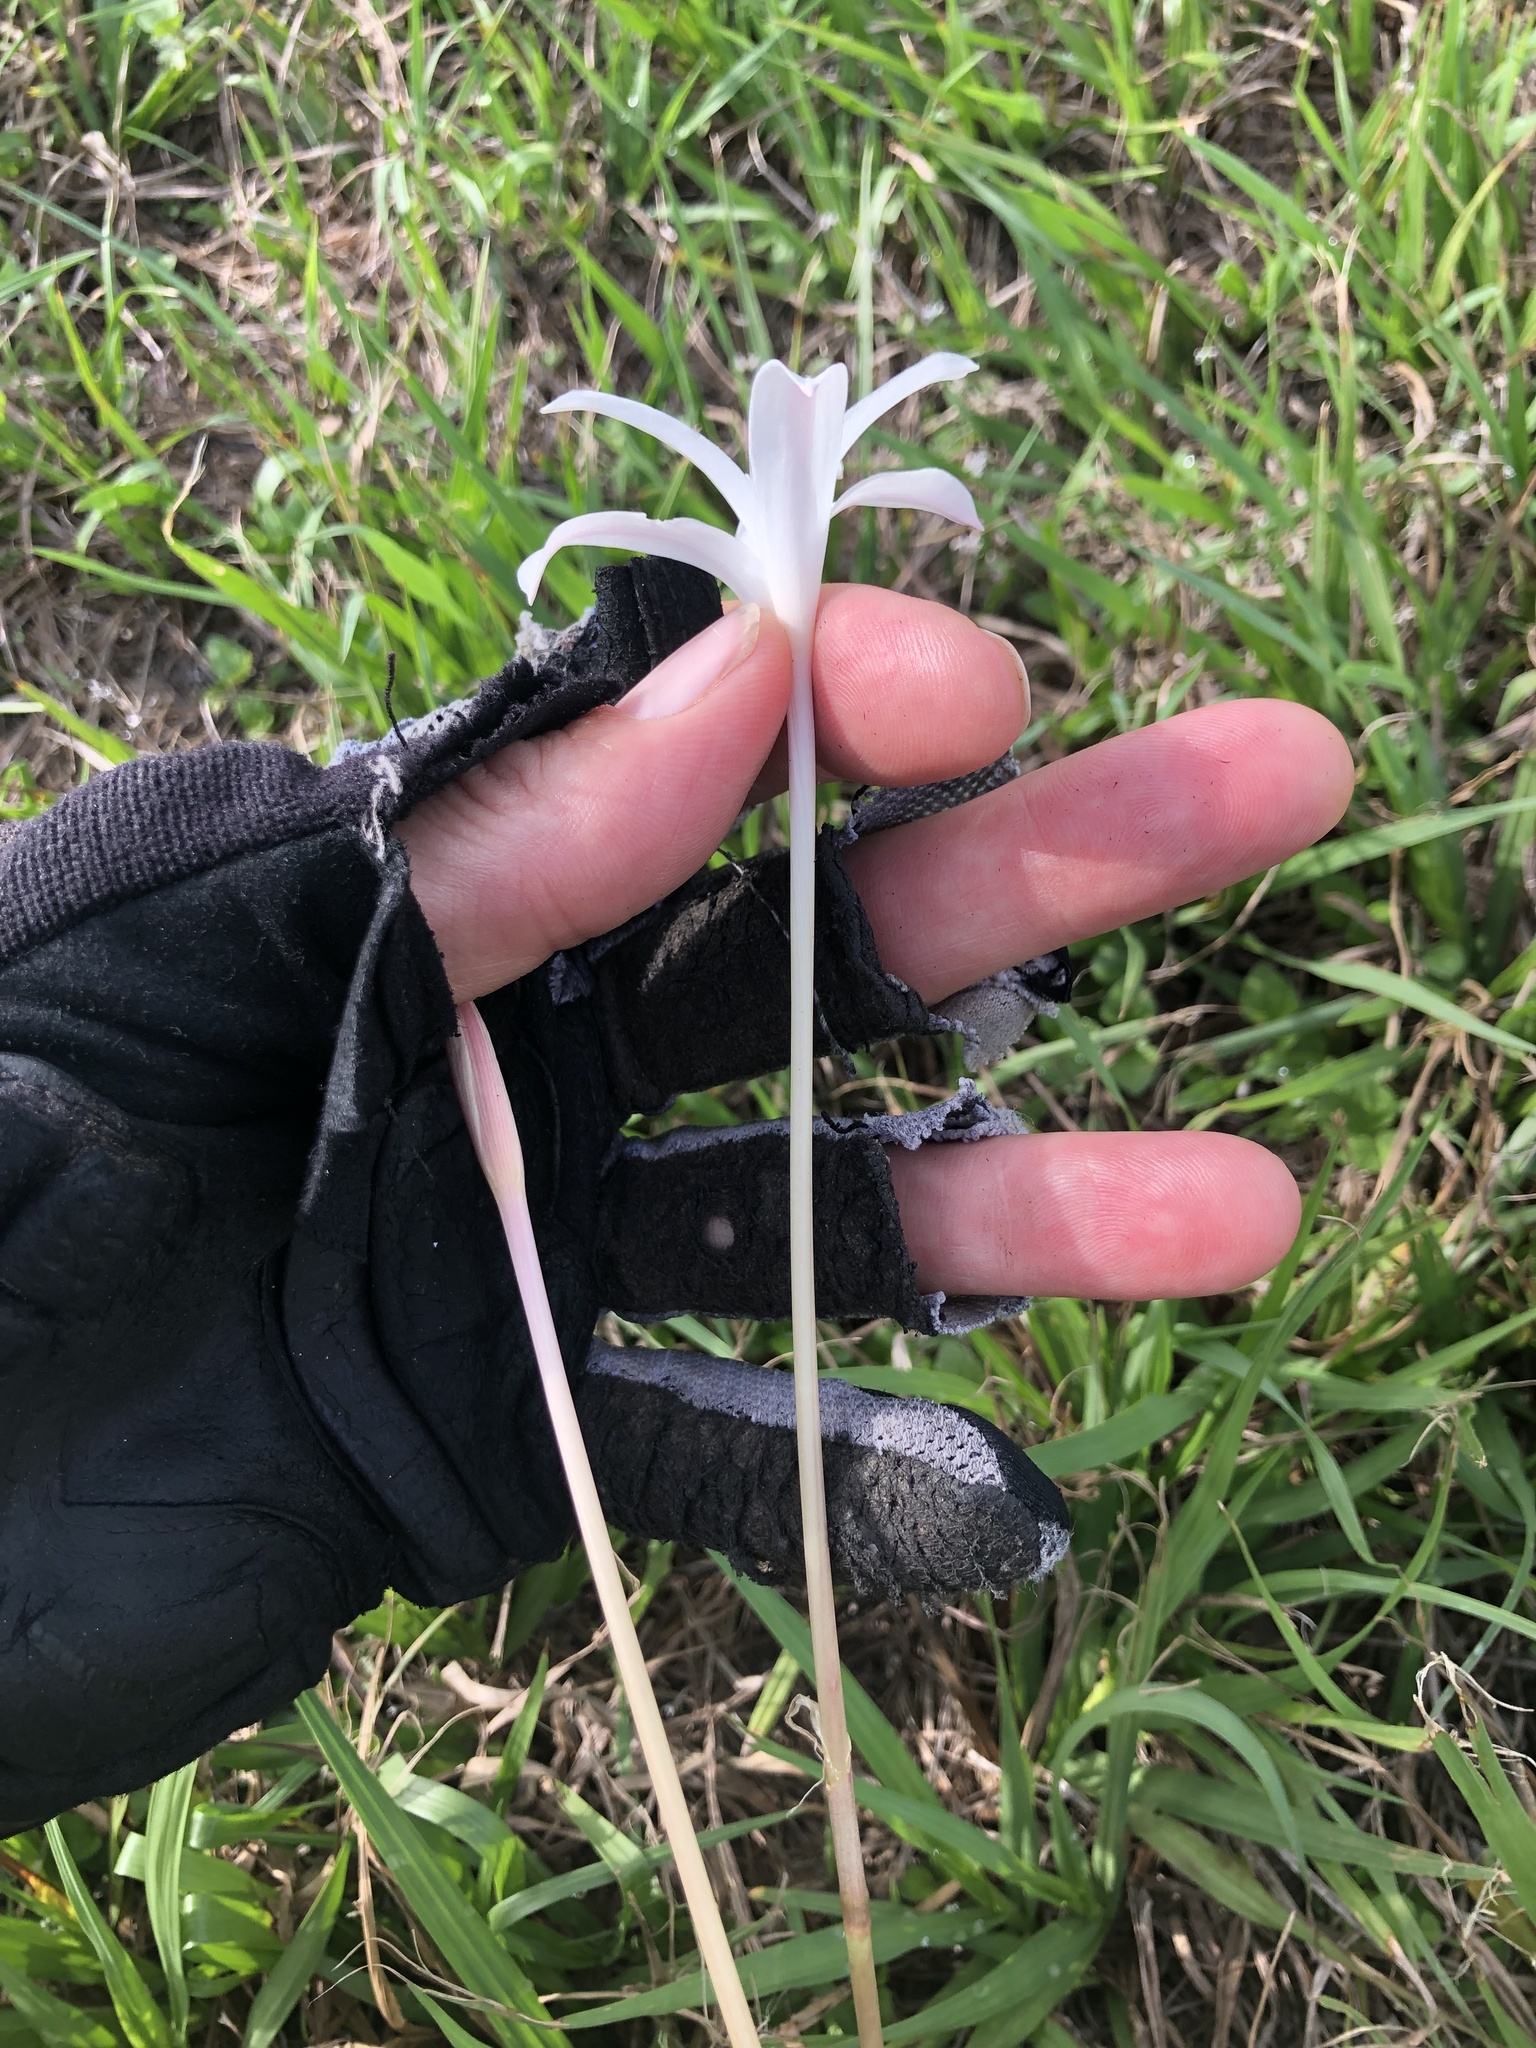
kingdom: Plantae
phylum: Tracheophyta
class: Liliopsida
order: Asparagales
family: Amaryllidaceae
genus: Zephyranthes
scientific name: Zephyranthes traubii
